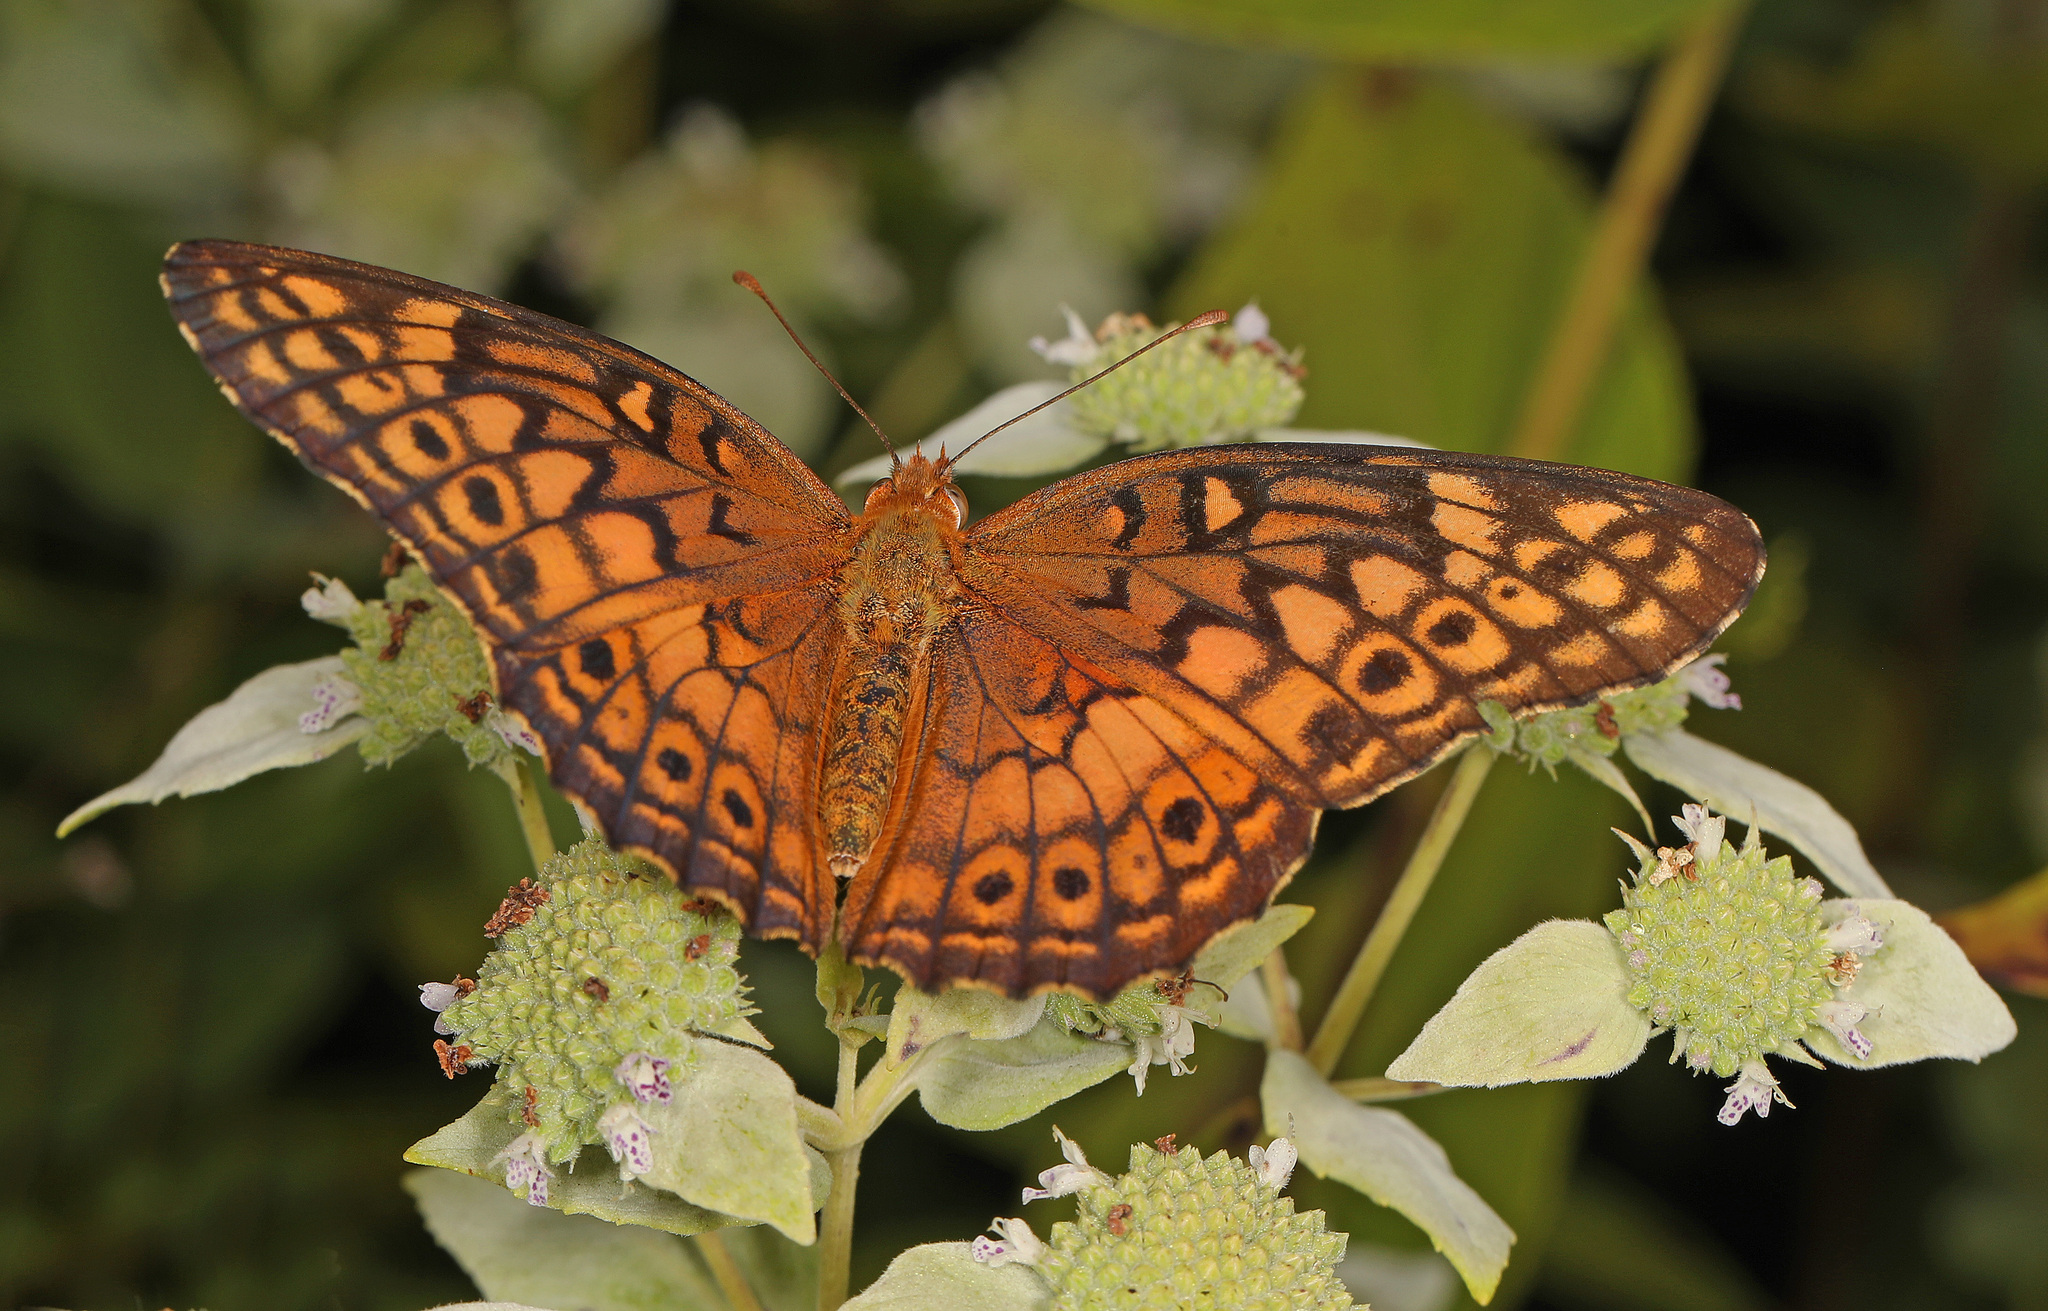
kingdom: Animalia
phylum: Arthropoda
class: Insecta
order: Lepidoptera
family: Nymphalidae
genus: Euptoieta
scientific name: Euptoieta claudia
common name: Variegated fritillary
